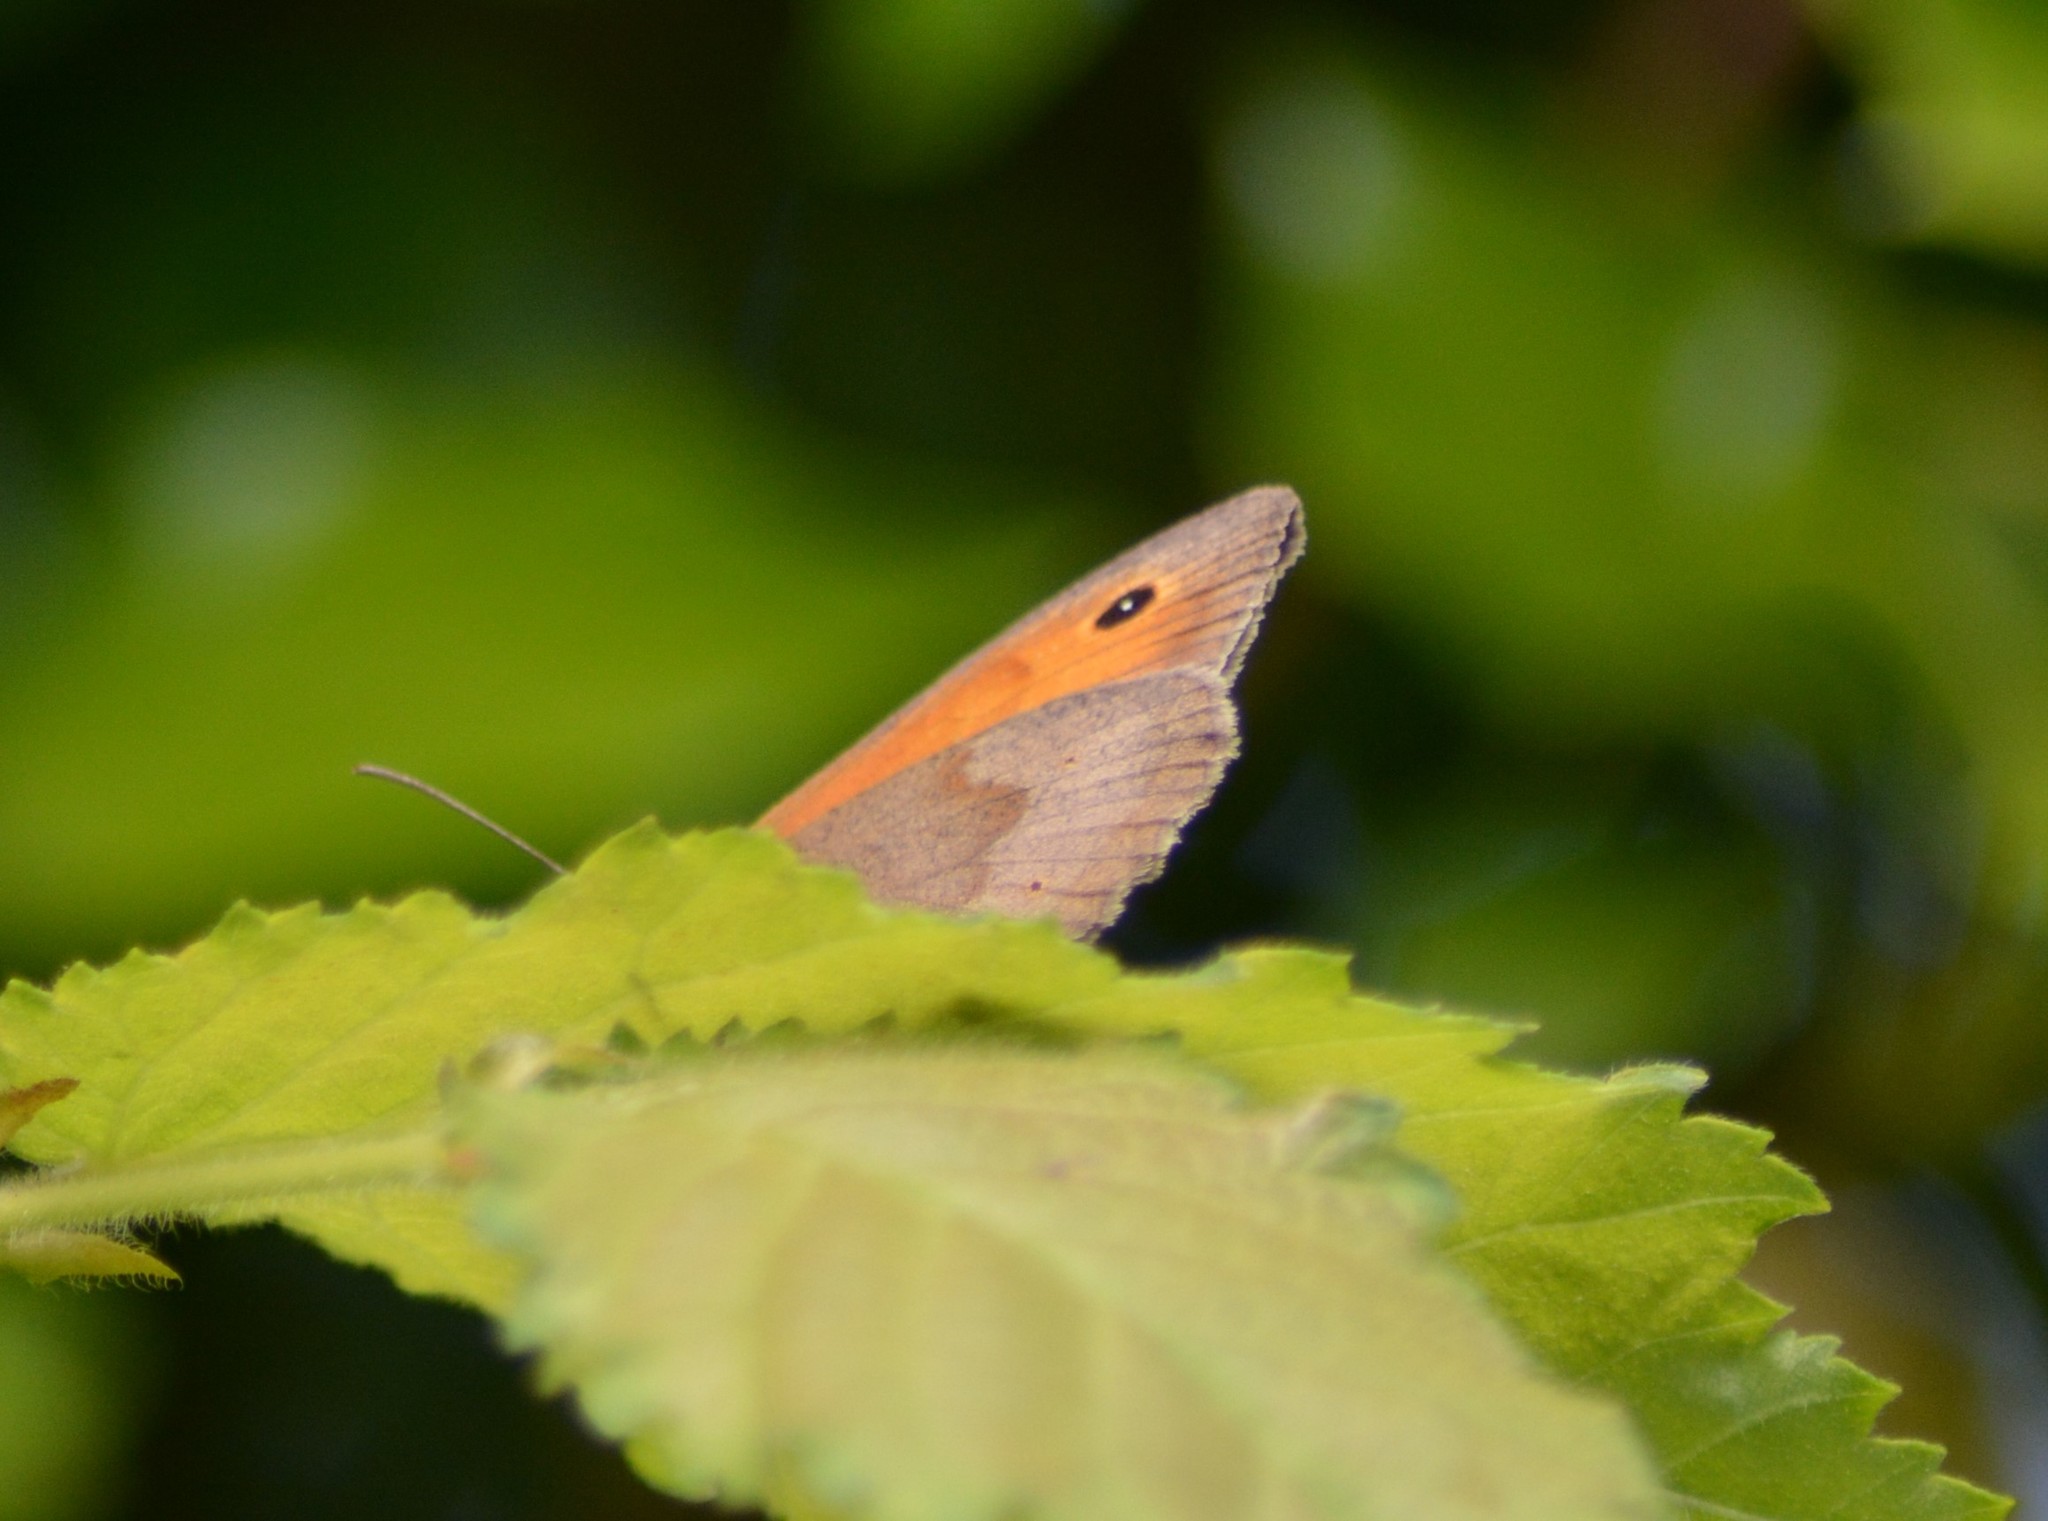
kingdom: Animalia
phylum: Arthropoda
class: Insecta
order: Lepidoptera
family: Nymphalidae
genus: Maniola
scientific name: Maniola jurtina
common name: Meadow brown
